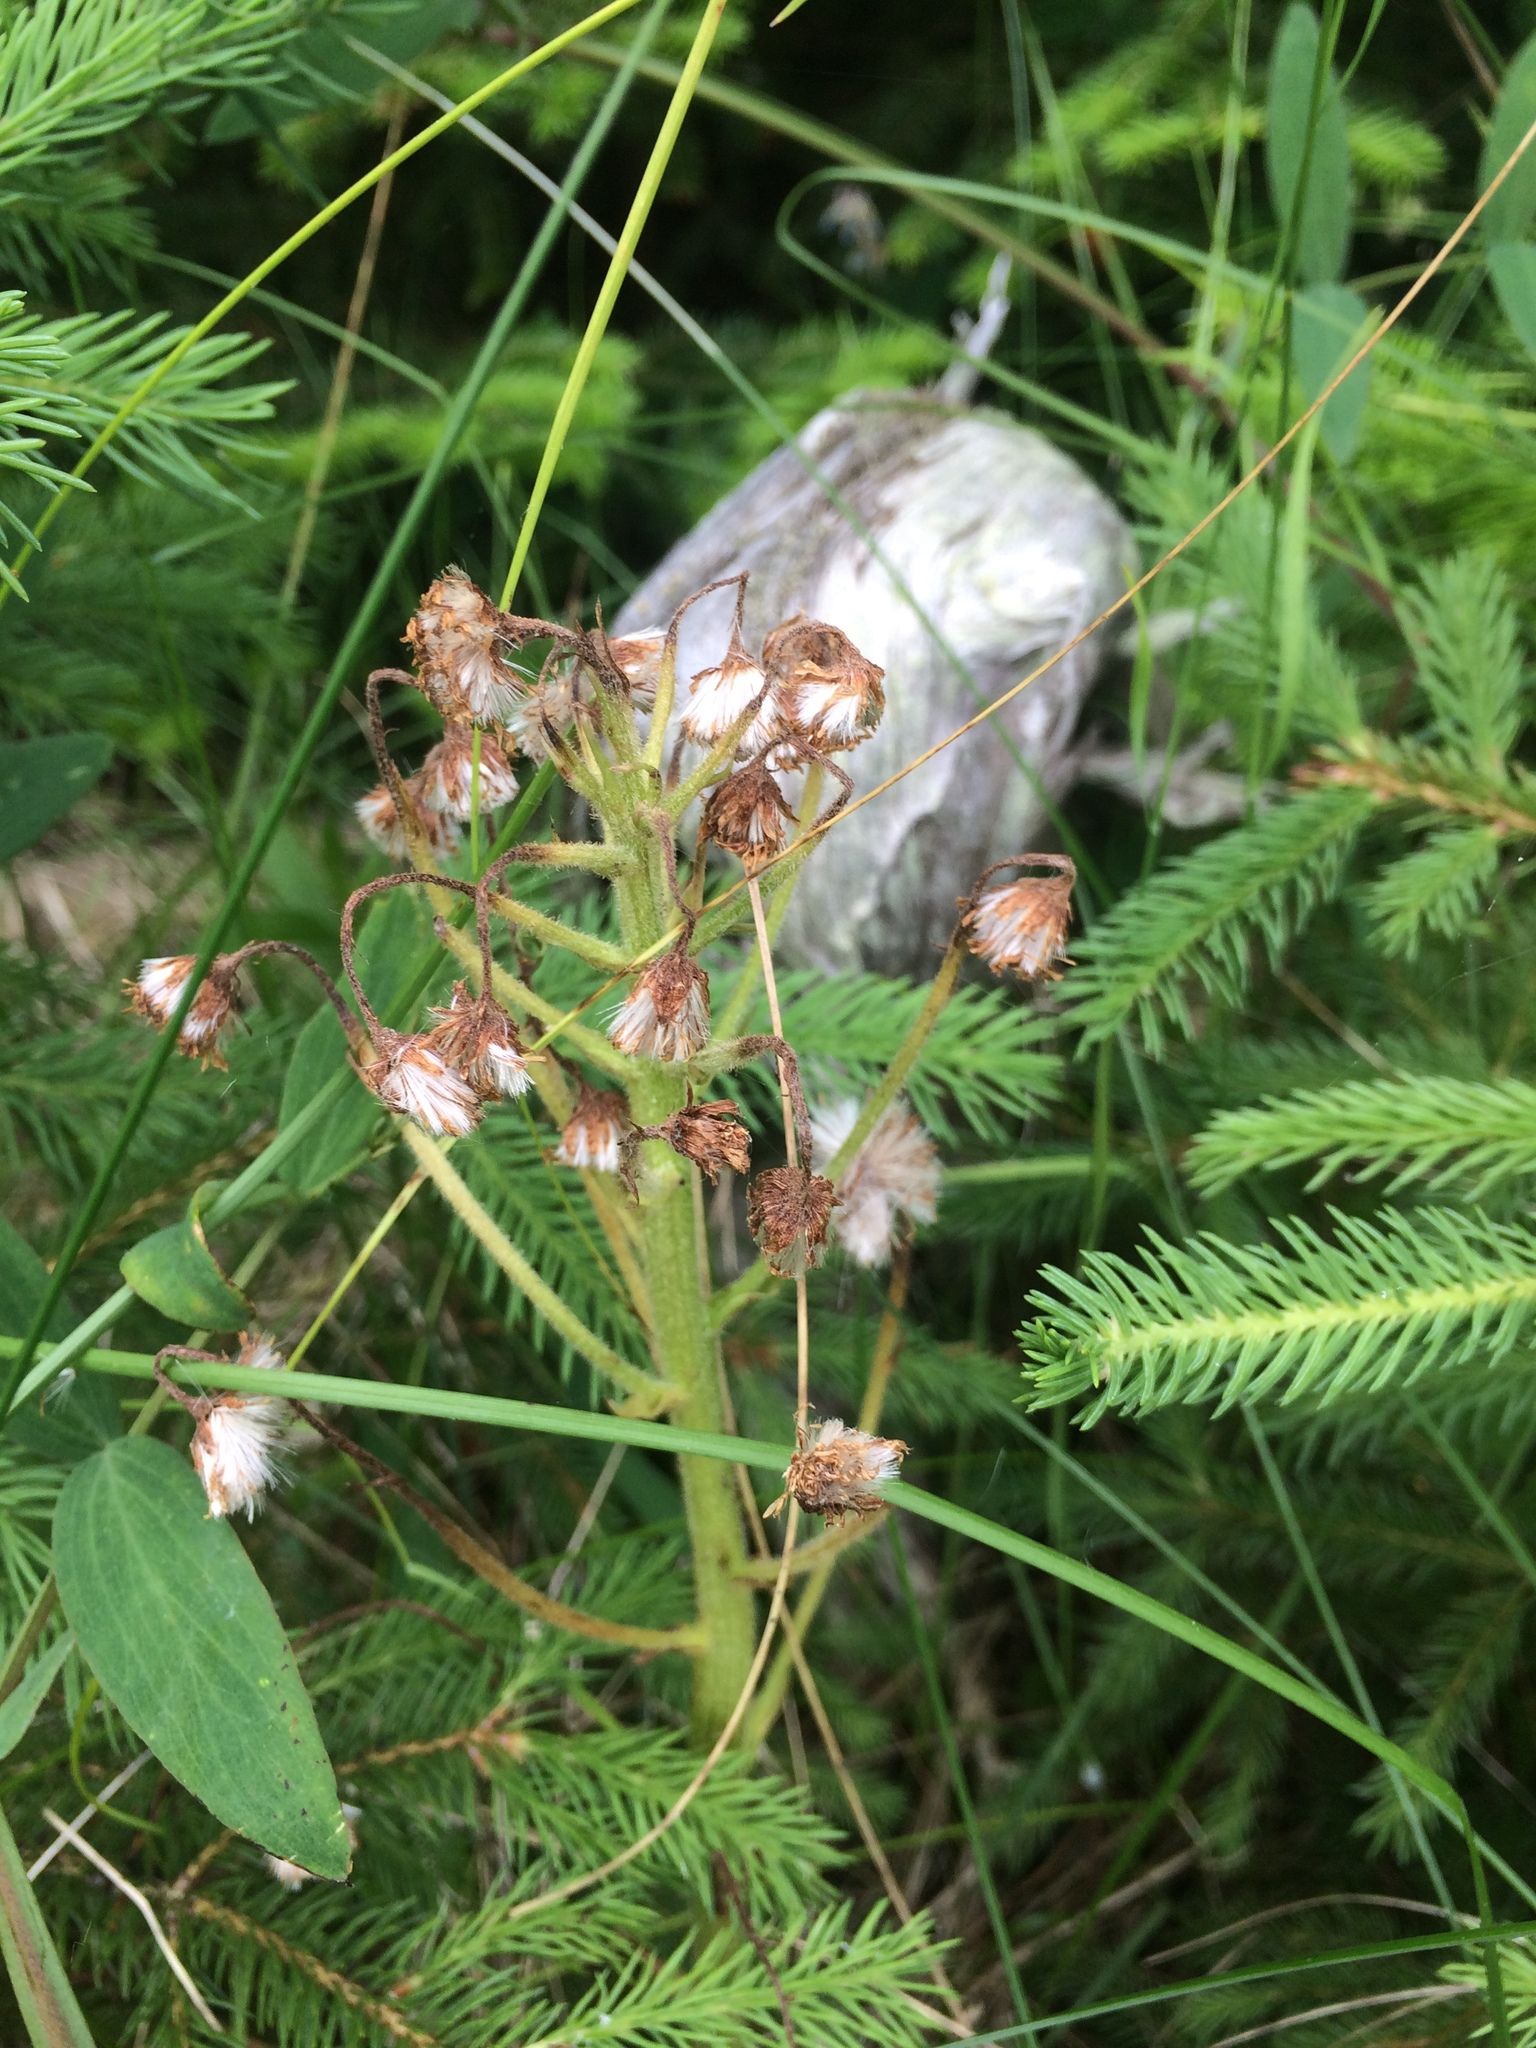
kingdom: Plantae
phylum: Tracheophyta
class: Magnoliopsida
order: Asterales
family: Asteraceae
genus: Petasites
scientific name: Petasites frigidus
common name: Arctic butterbur
